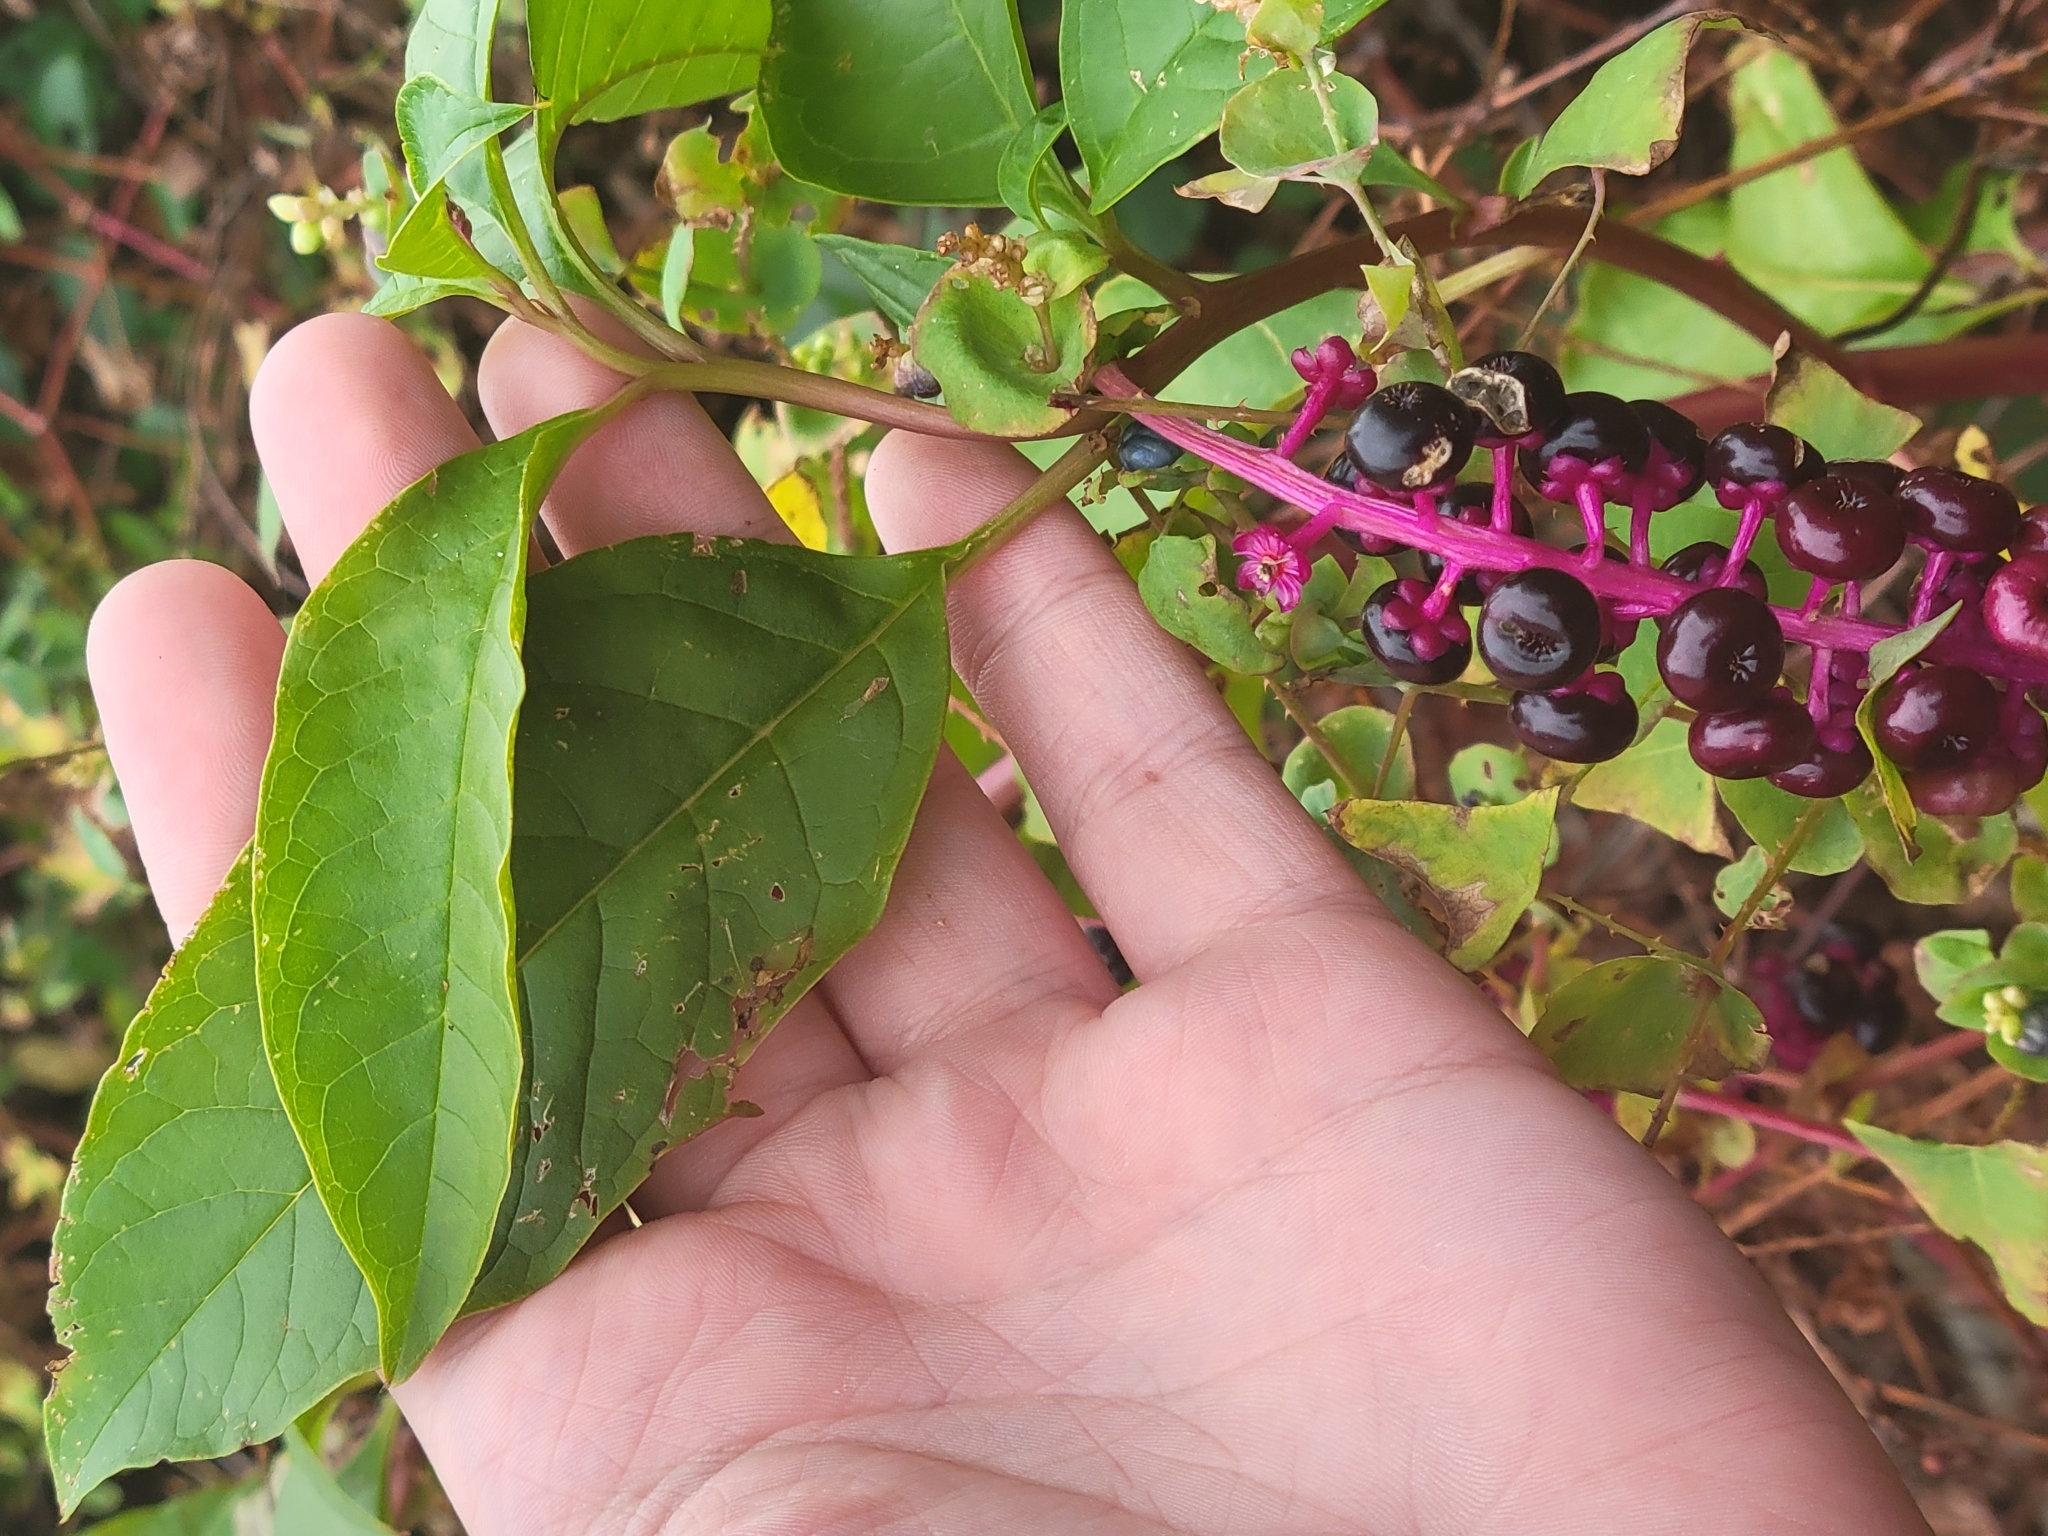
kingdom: Plantae
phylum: Tracheophyta
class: Magnoliopsida
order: Caryophyllales
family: Phytolaccaceae
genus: Phytolacca
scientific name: Phytolacca americana
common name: American pokeweed
